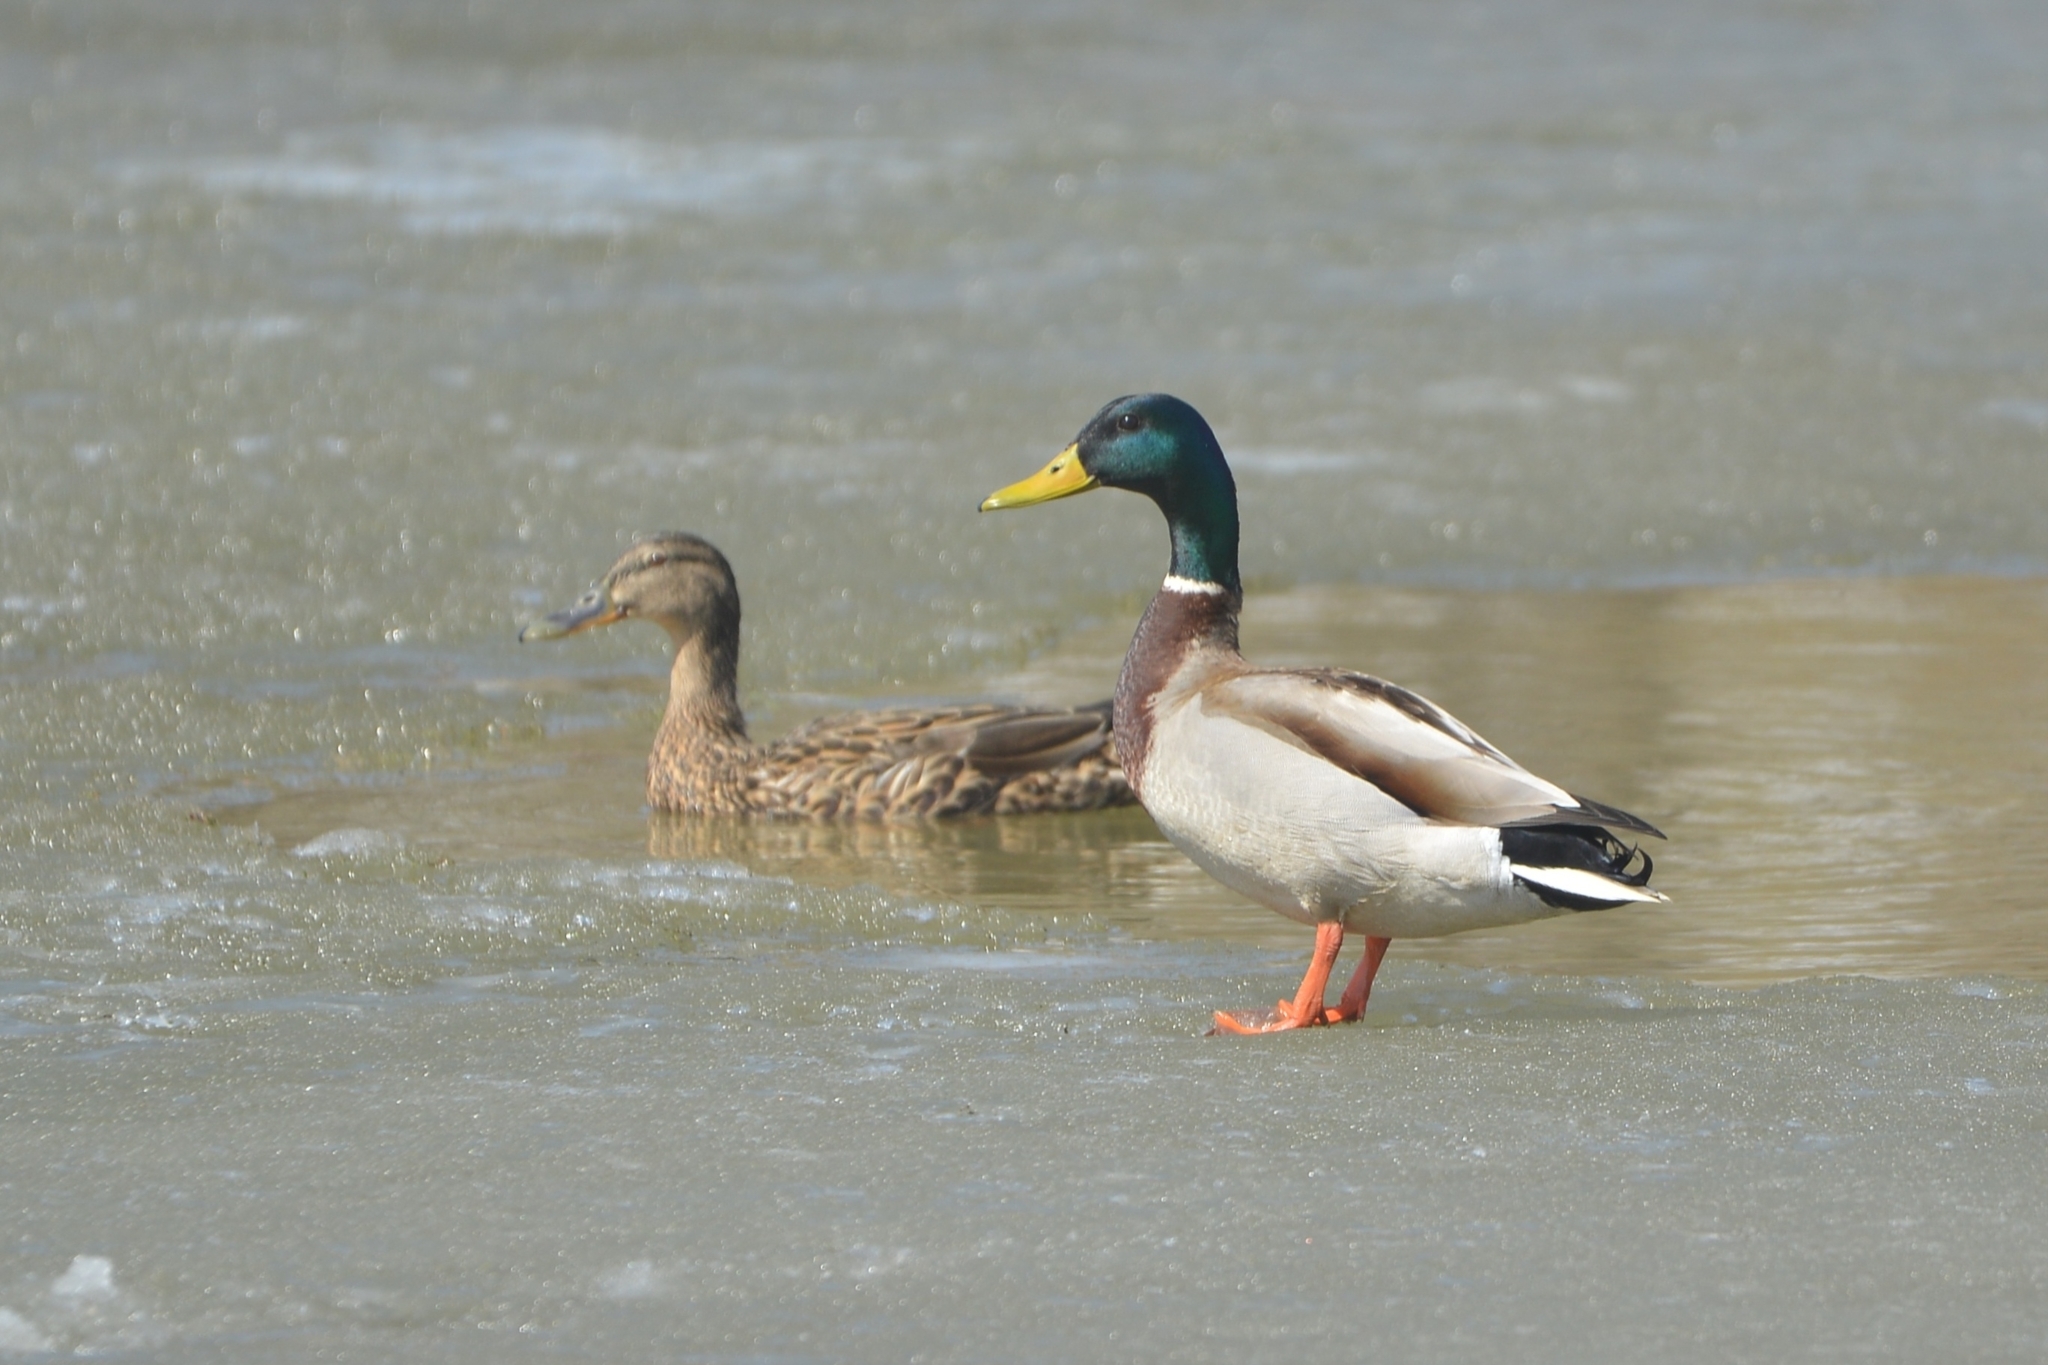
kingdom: Animalia
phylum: Chordata
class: Aves
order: Anseriformes
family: Anatidae
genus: Anas
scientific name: Anas platyrhynchos
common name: Mallard
